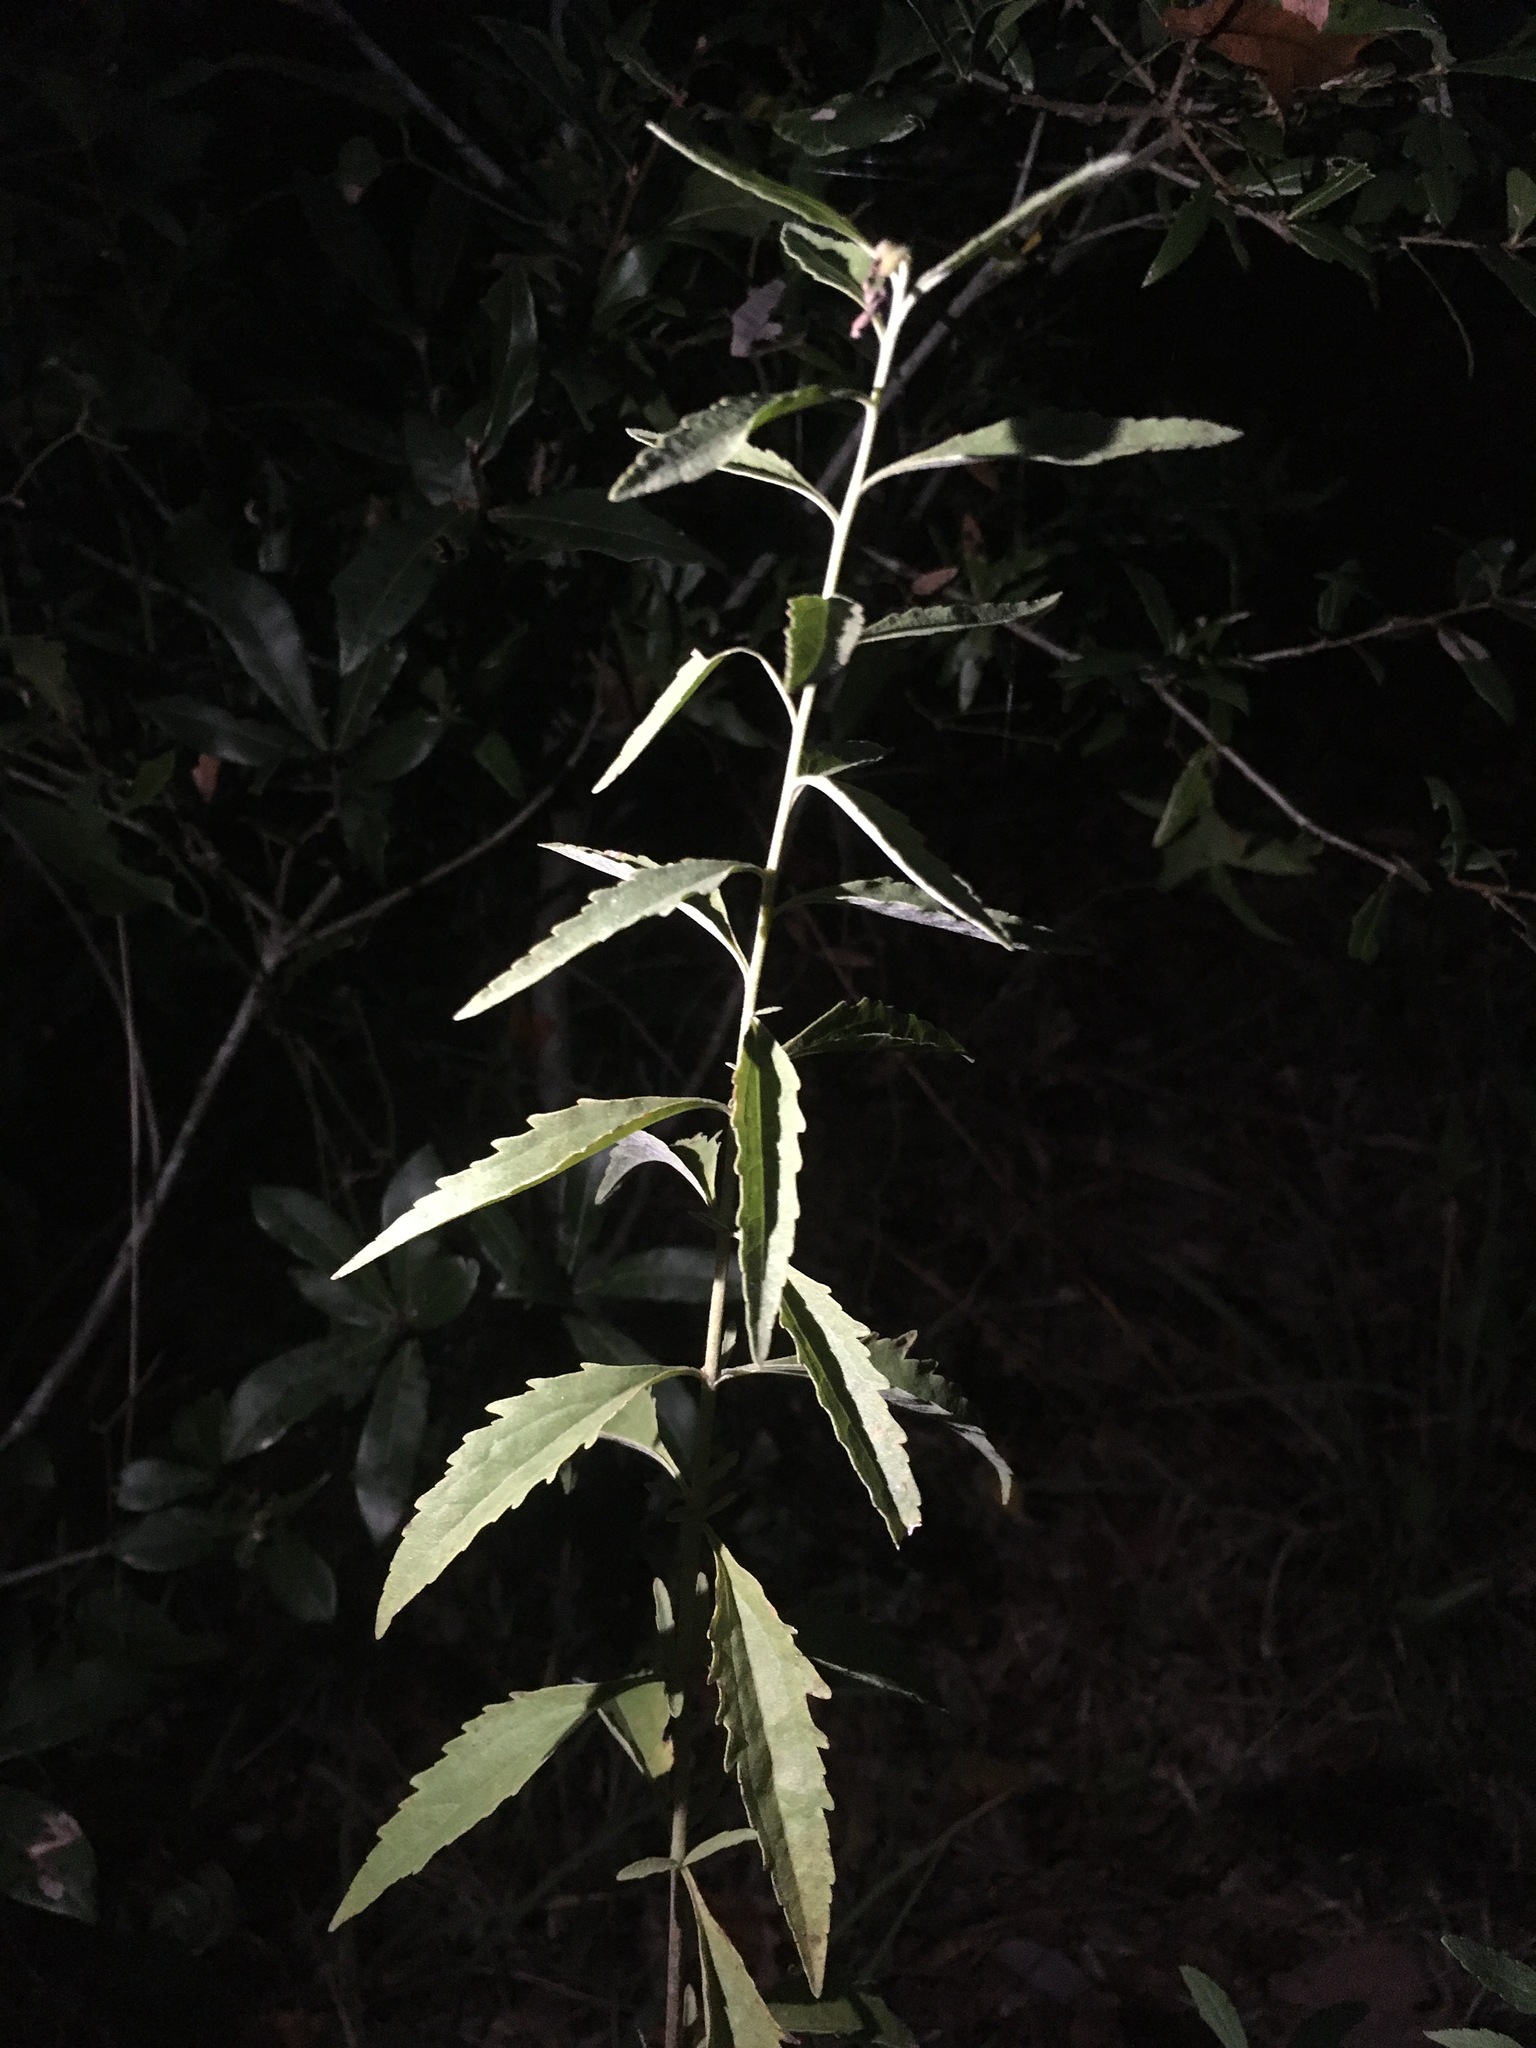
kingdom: Plantae
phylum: Tracheophyta
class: Magnoliopsida
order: Asterales
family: Asteraceae
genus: Eupatorium
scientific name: Eupatorium maritimum
